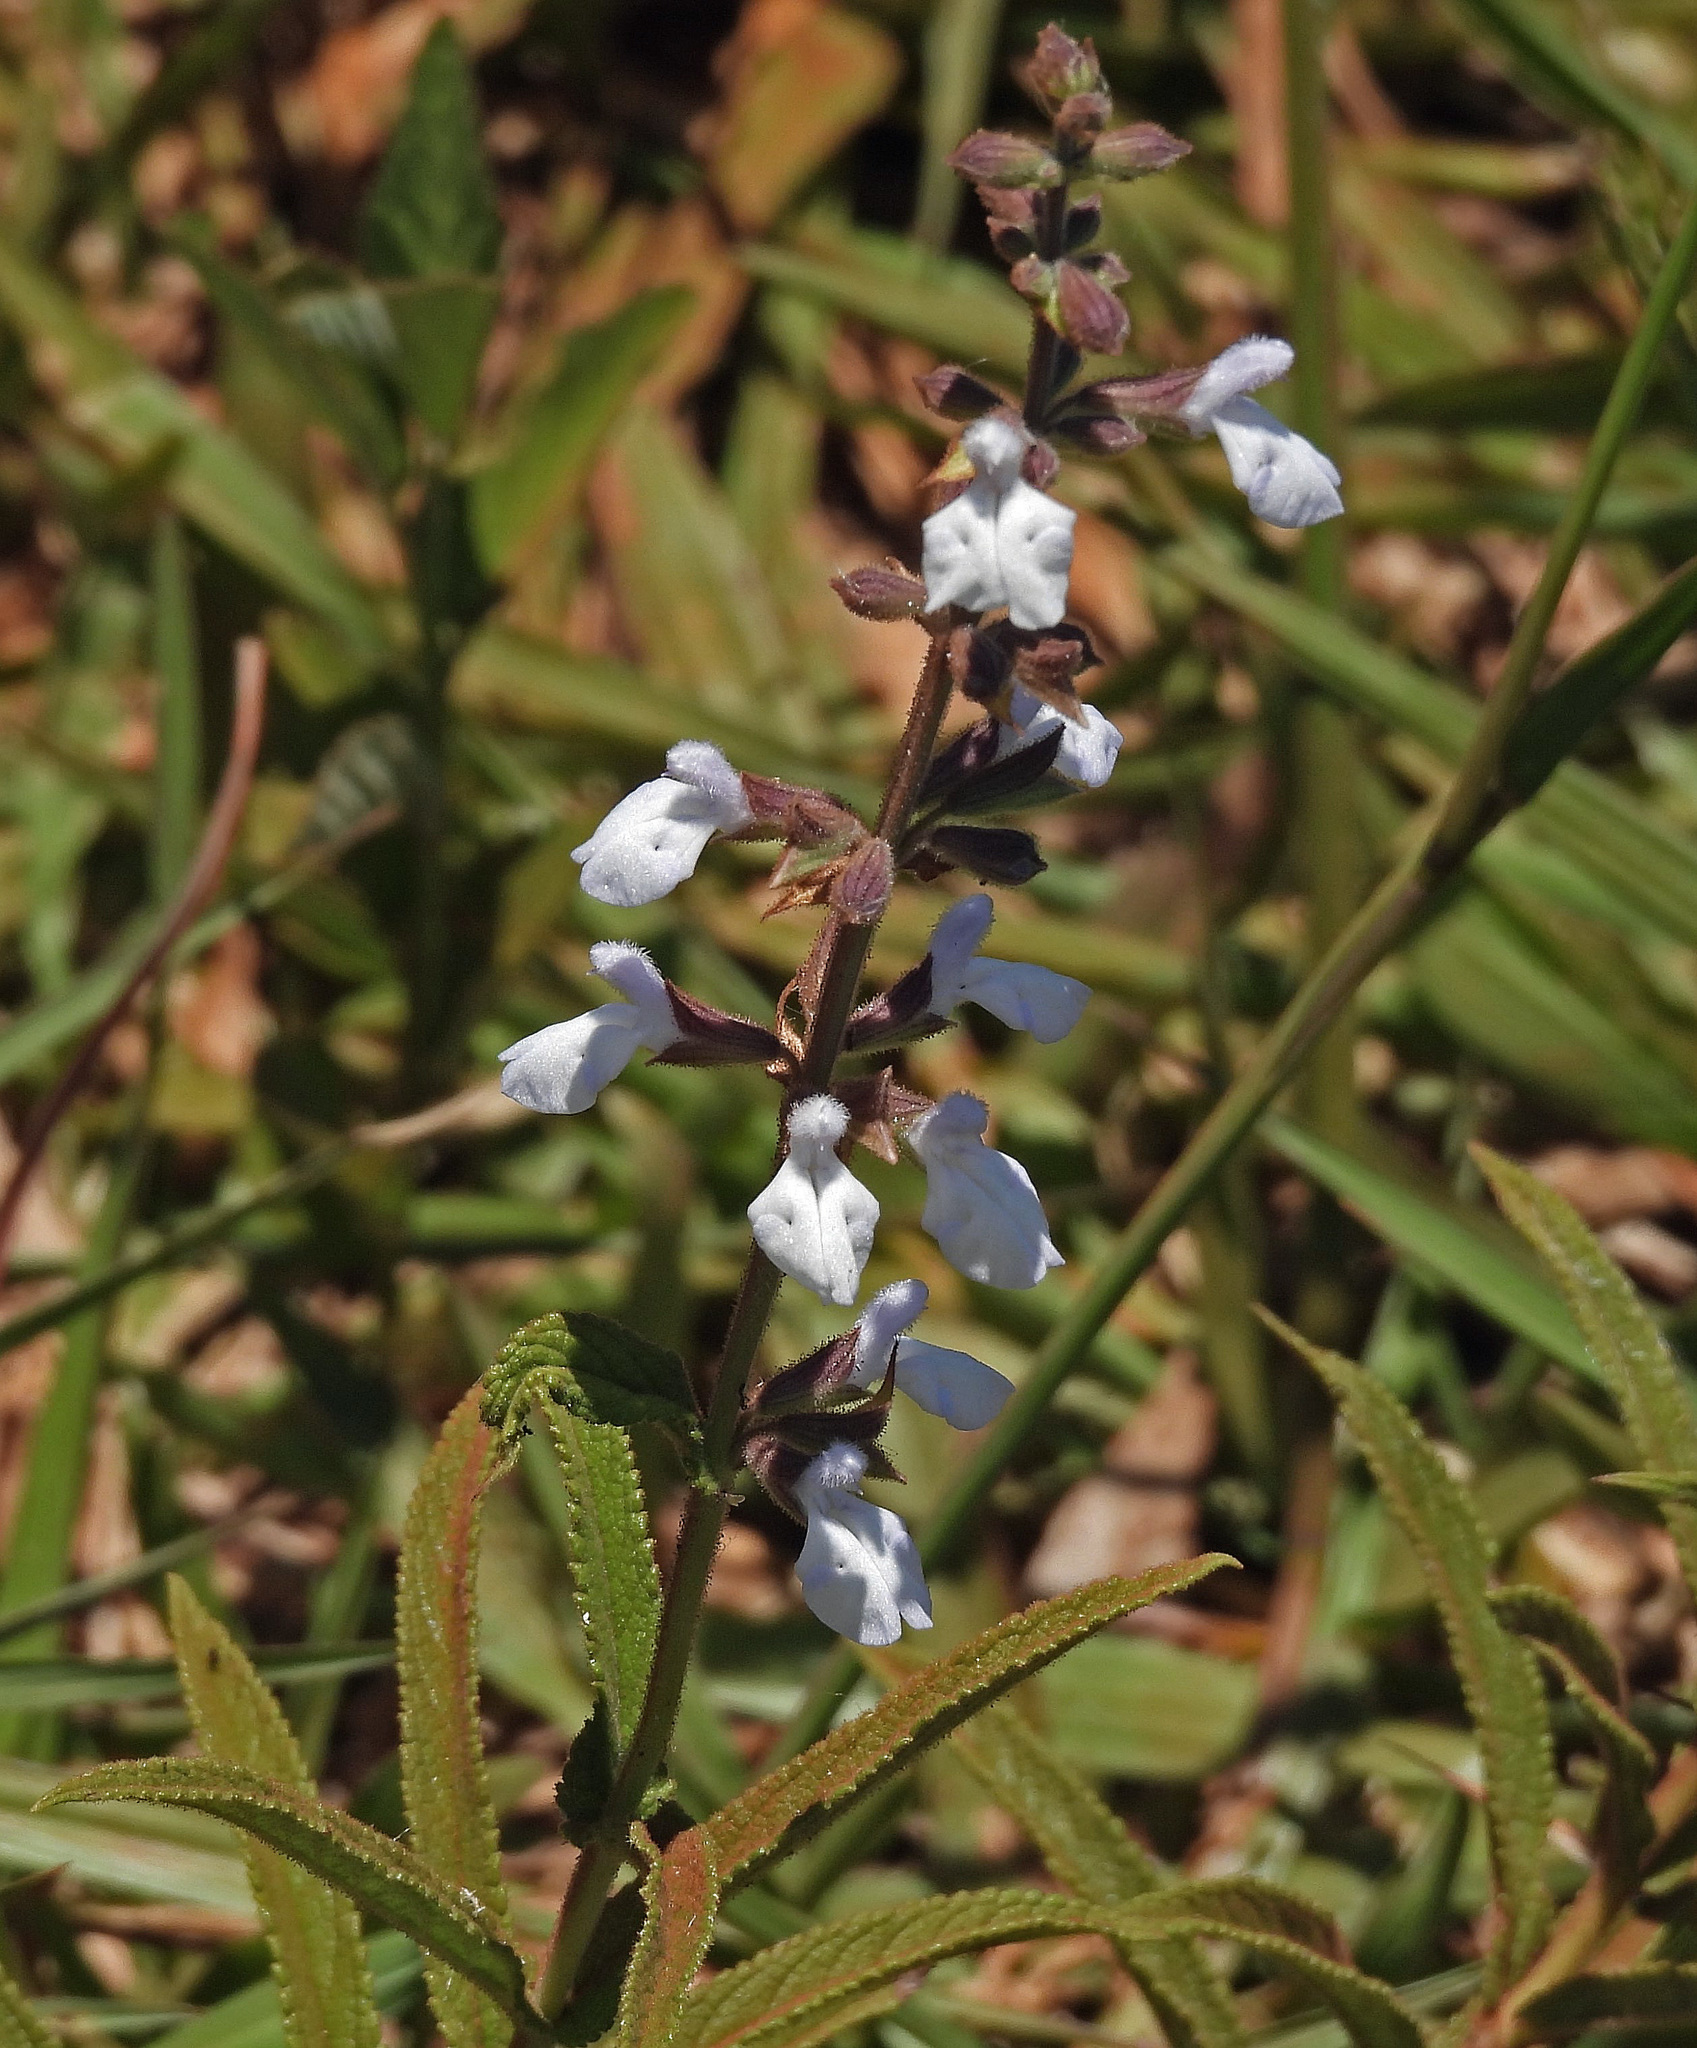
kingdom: Plantae
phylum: Tracheophyta
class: Magnoliopsida
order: Lamiales
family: Lamiaceae
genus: Salvia
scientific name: Salvia nervosa
